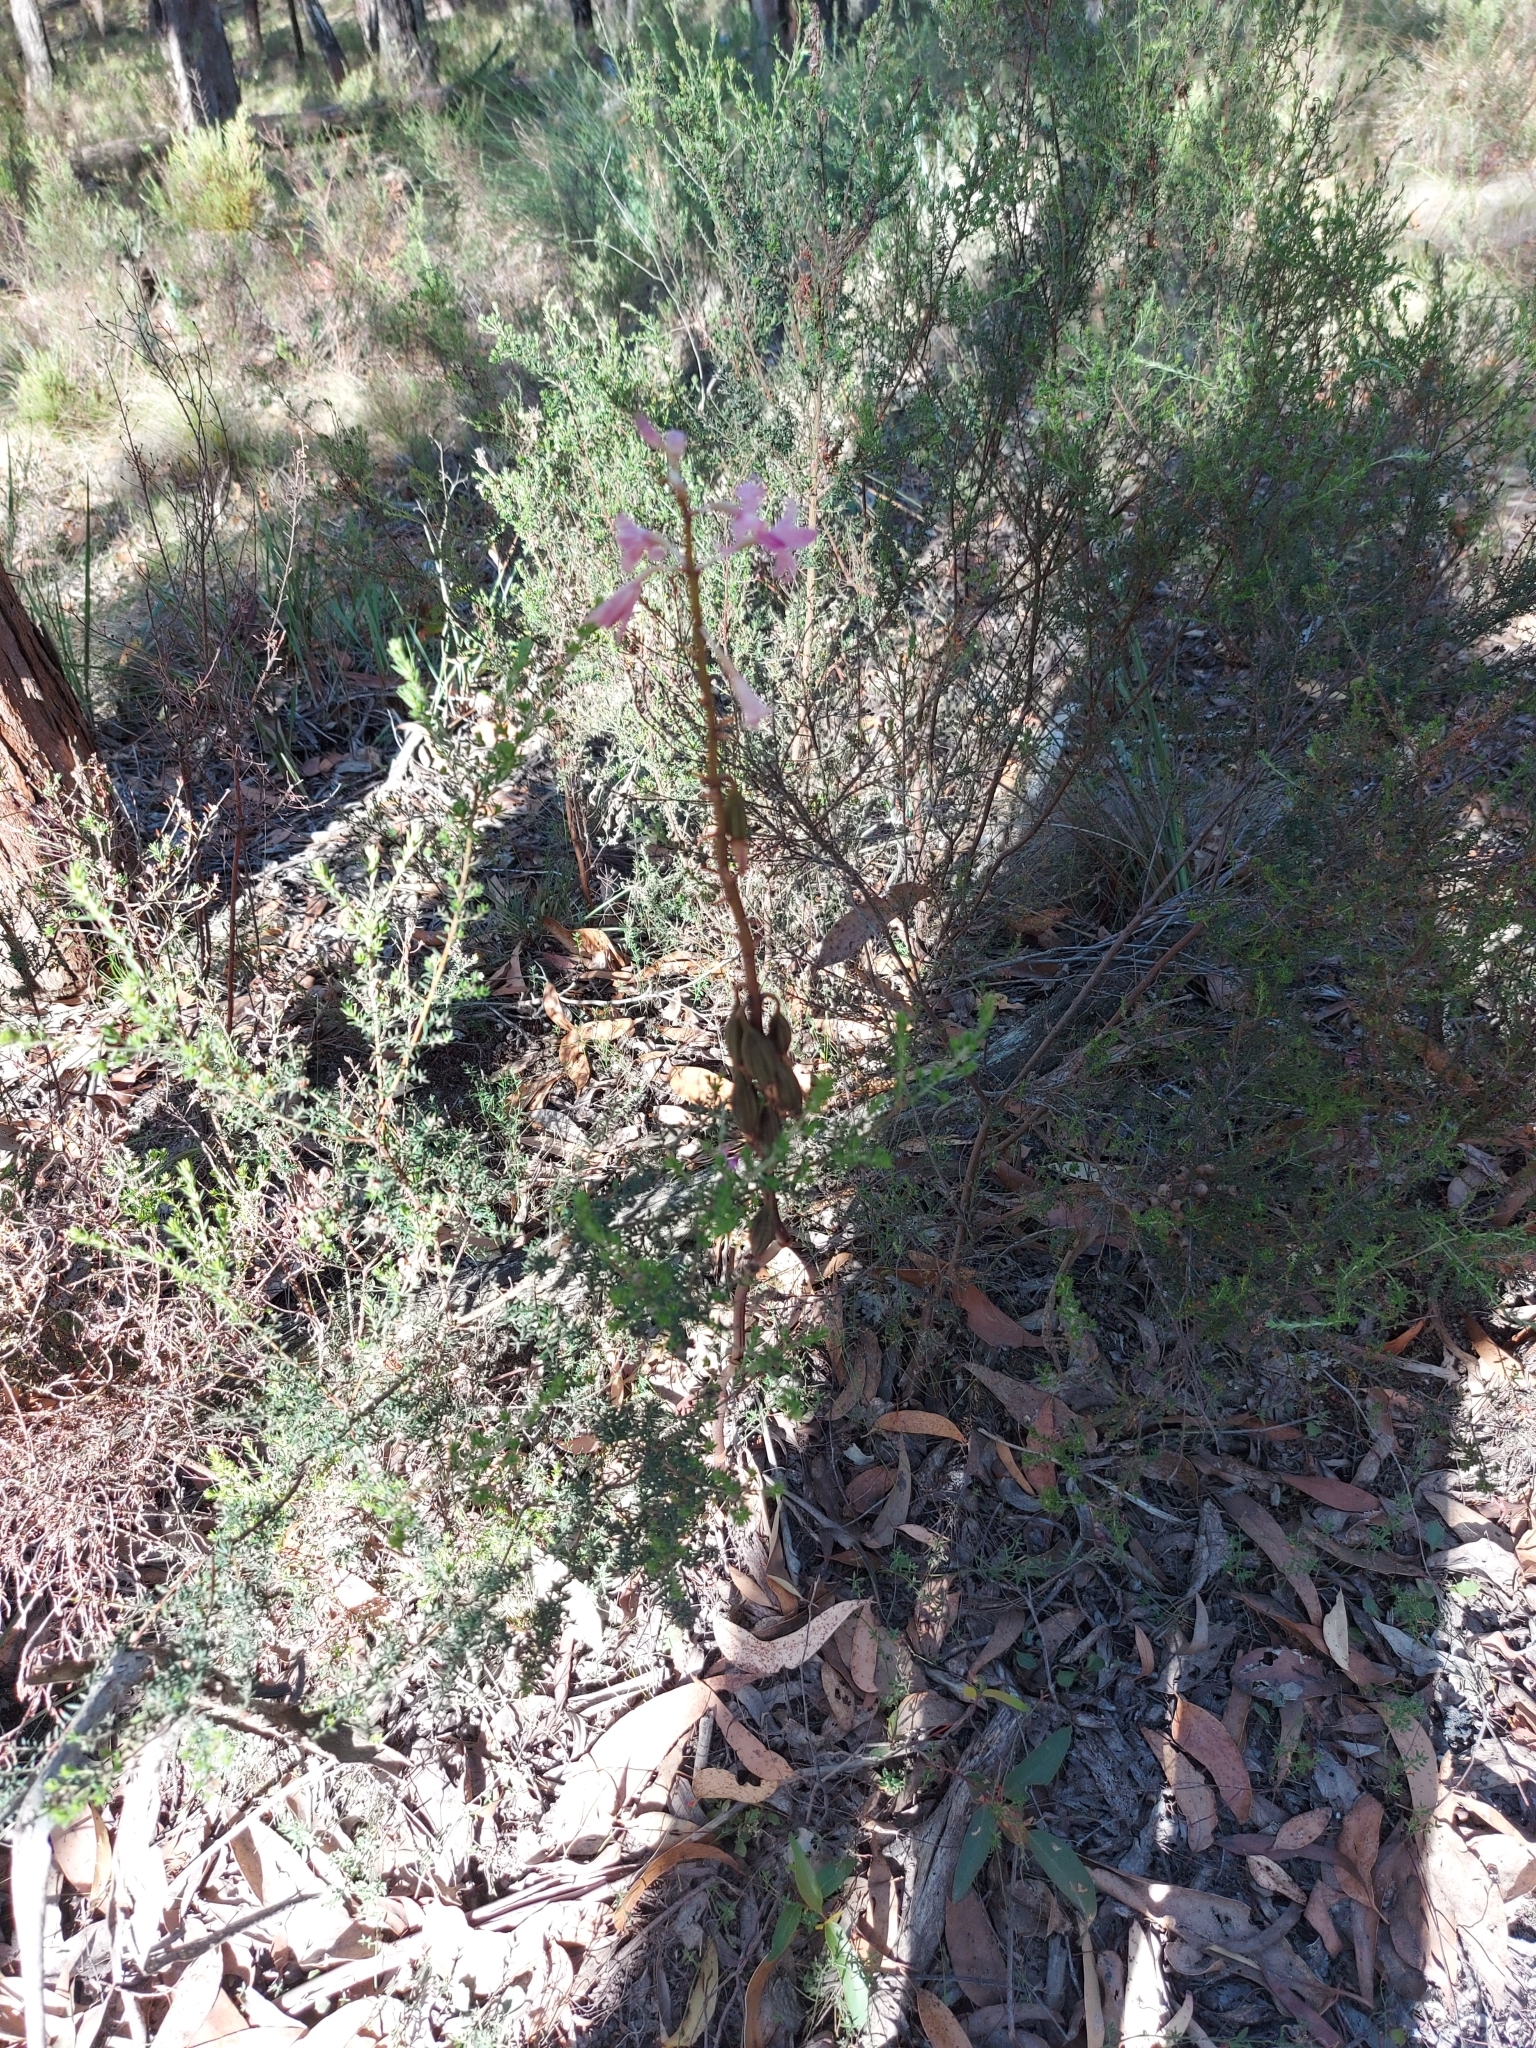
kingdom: Plantae
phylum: Tracheophyta
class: Liliopsida
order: Asparagales
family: Orchidaceae
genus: Dipodium
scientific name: Dipodium roseum
